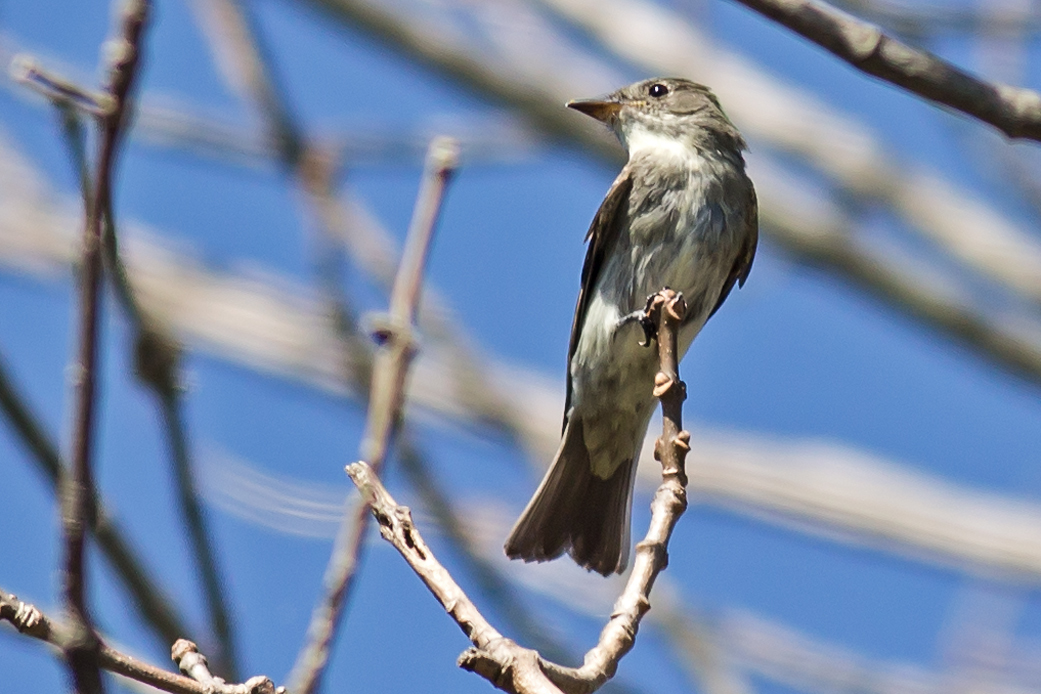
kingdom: Animalia
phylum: Chordata
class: Aves
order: Passeriformes
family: Tyrannidae
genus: Contopus
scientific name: Contopus virens
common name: Eastern wood-pewee
